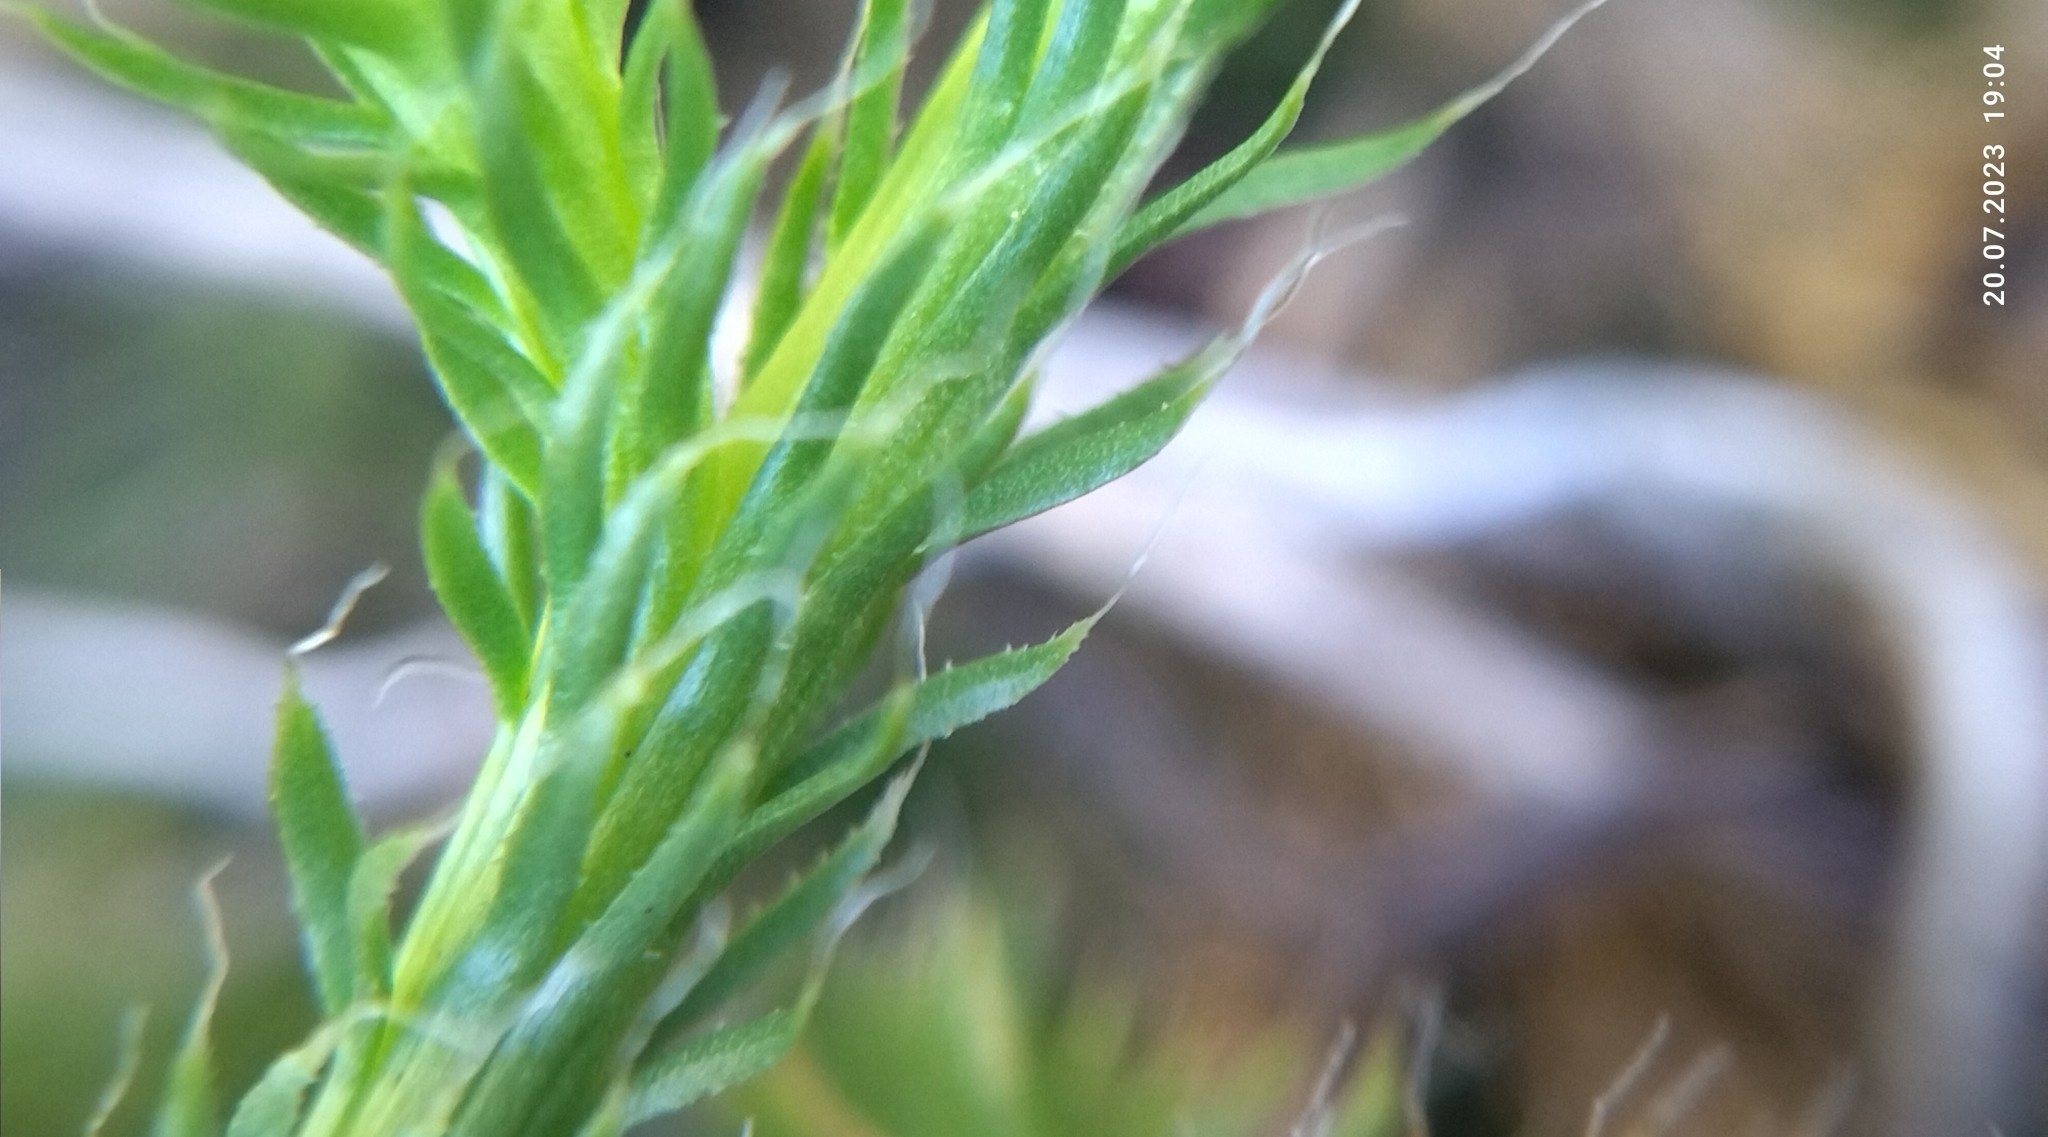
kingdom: Plantae
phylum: Tracheophyta
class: Lycopodiopsida
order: Lycopodiales
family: Lycopodiaceae
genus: Lycopodium
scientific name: Lycopodium clavatum
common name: Stag's-horn clubmoss
